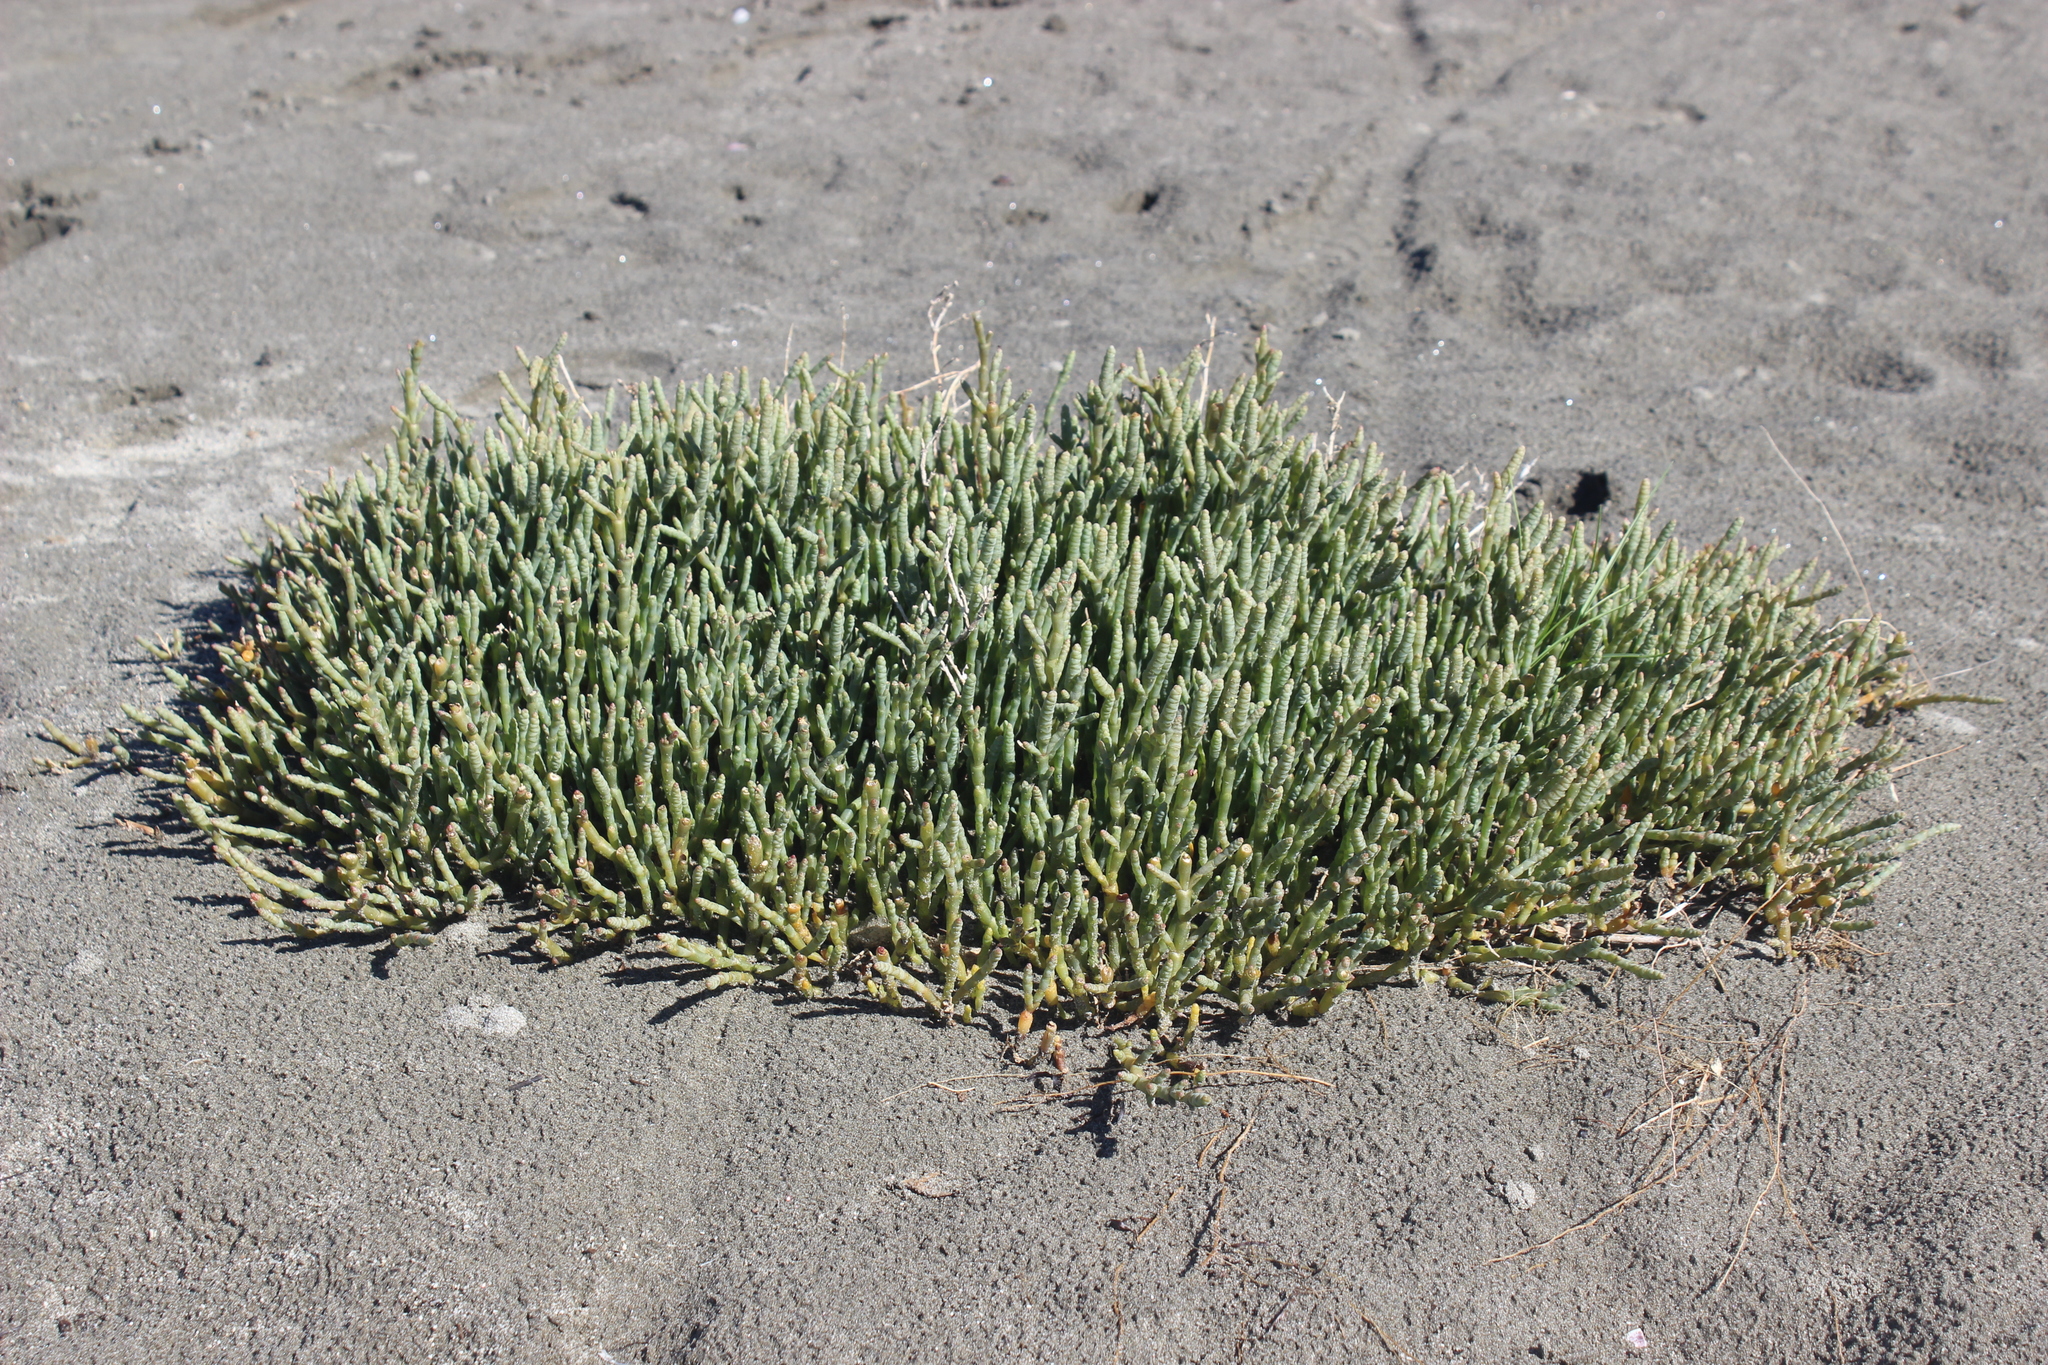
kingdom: Plantae
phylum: Tracheophyta
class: Magnoliopsida
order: Caryophyllales
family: Amaranthaceae
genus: Salicornia
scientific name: Salicornia quinqueflora
